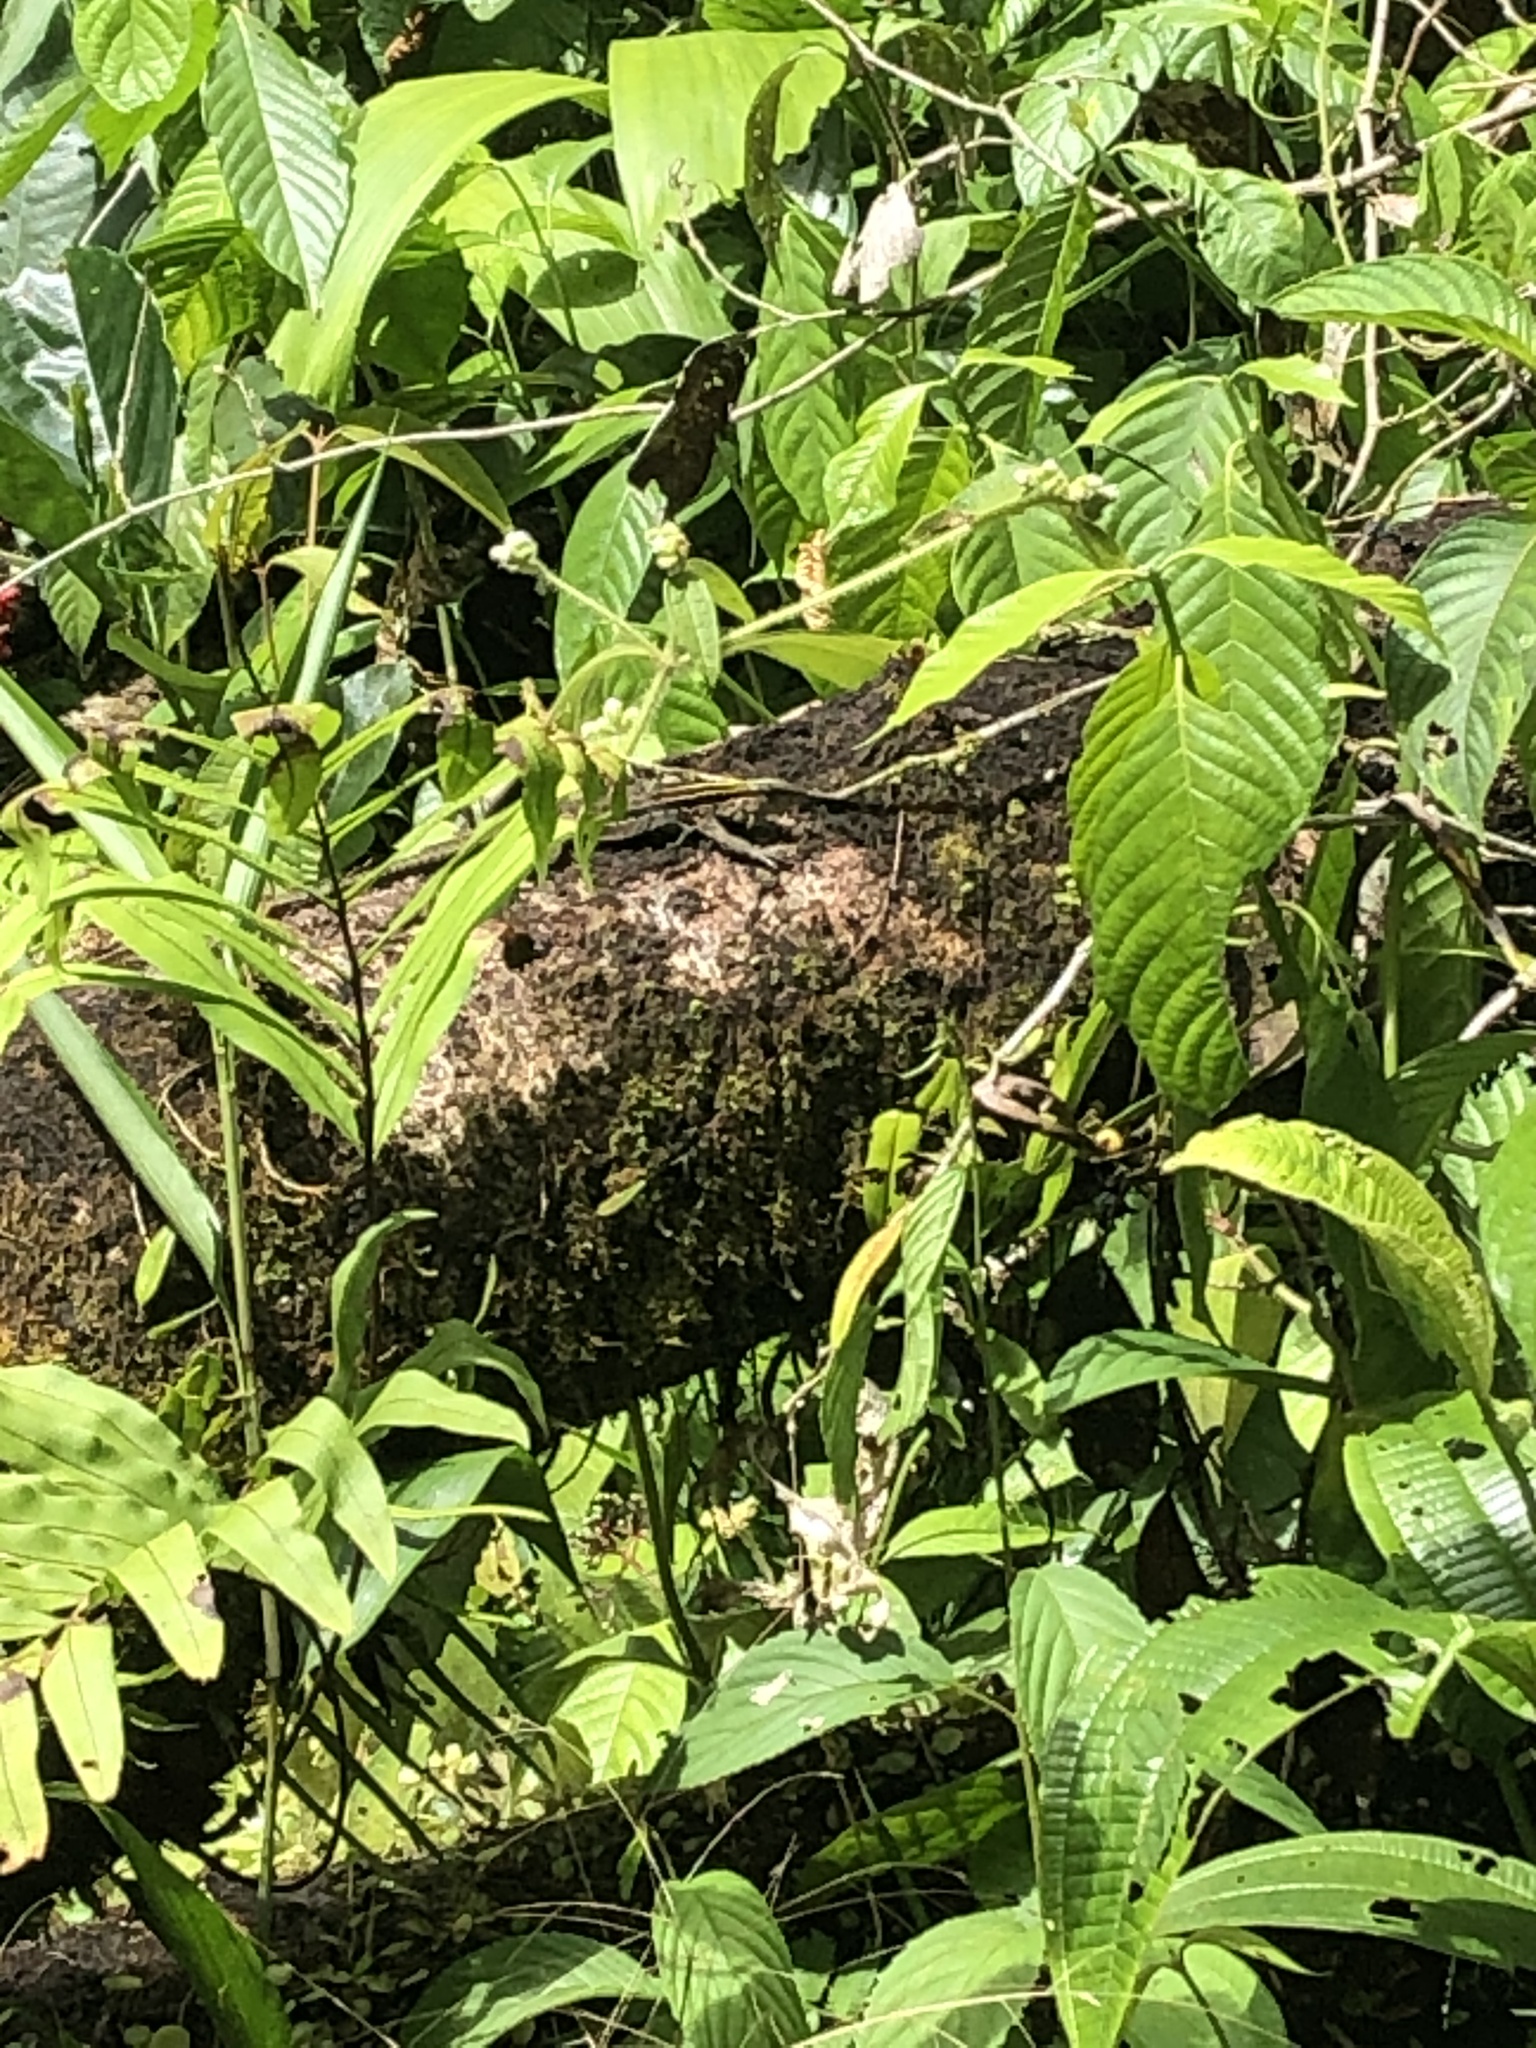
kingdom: Animalia
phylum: Chordata
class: Squamata
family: Teiidae
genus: Kentropyx
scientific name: Kentropyx altamazonica
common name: Cocha whiptail
